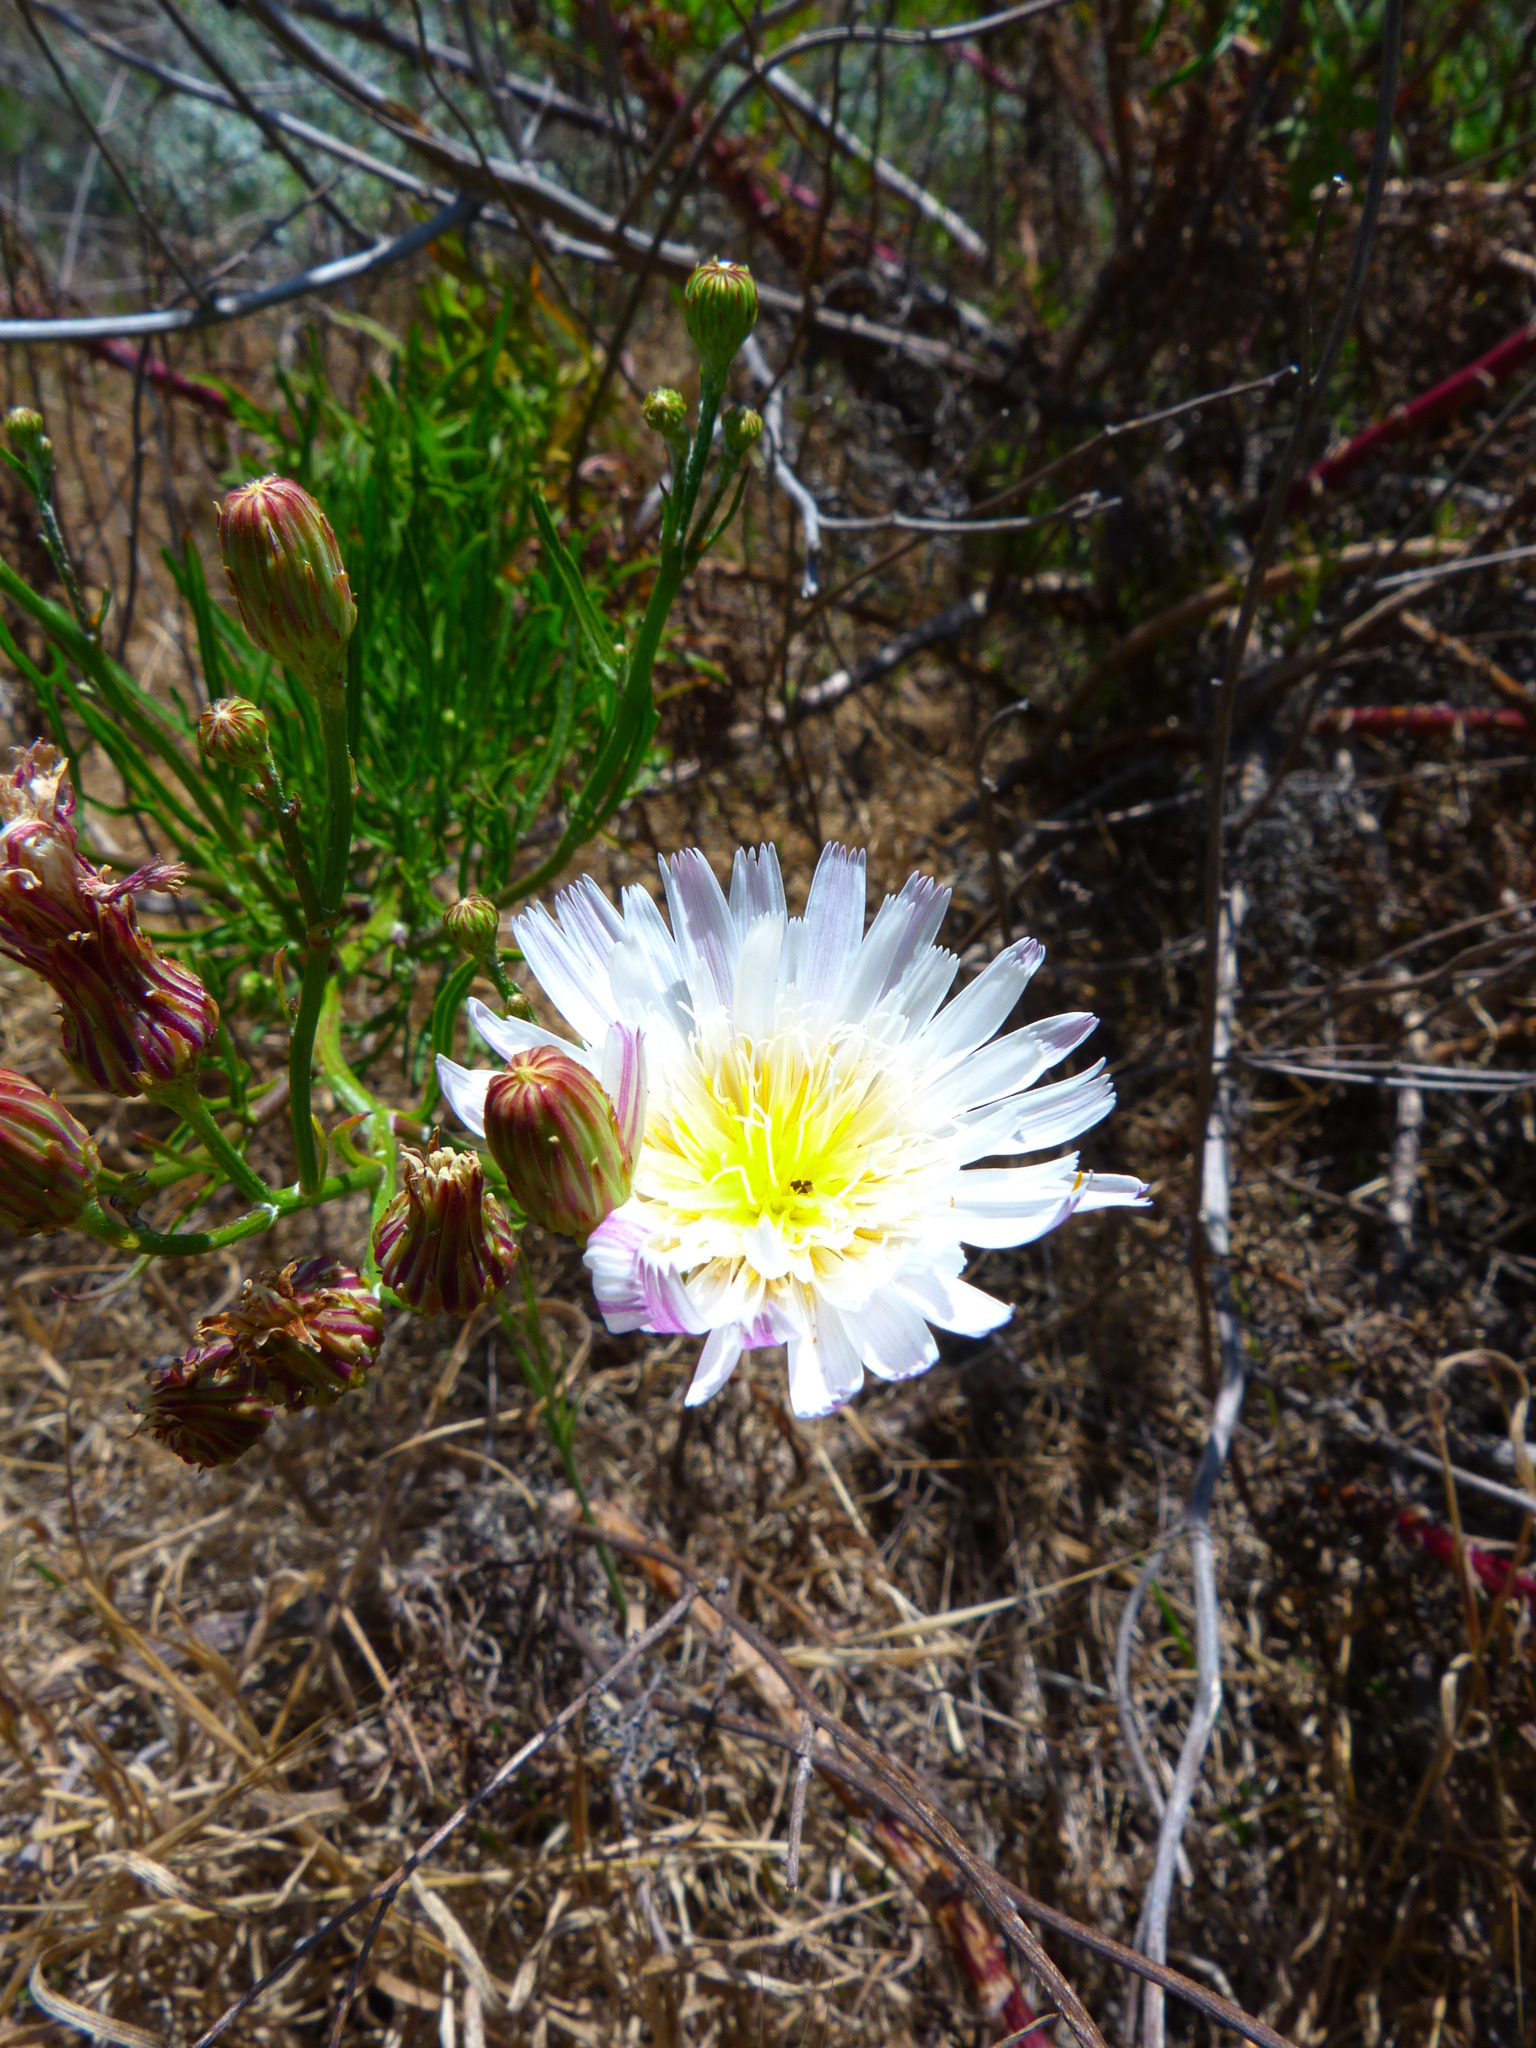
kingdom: Plantae
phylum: Tracheophyta
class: Magnoliopsida
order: Asterales
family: Asteraceae
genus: Malacothrix
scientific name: Malacothrix saxatilis
